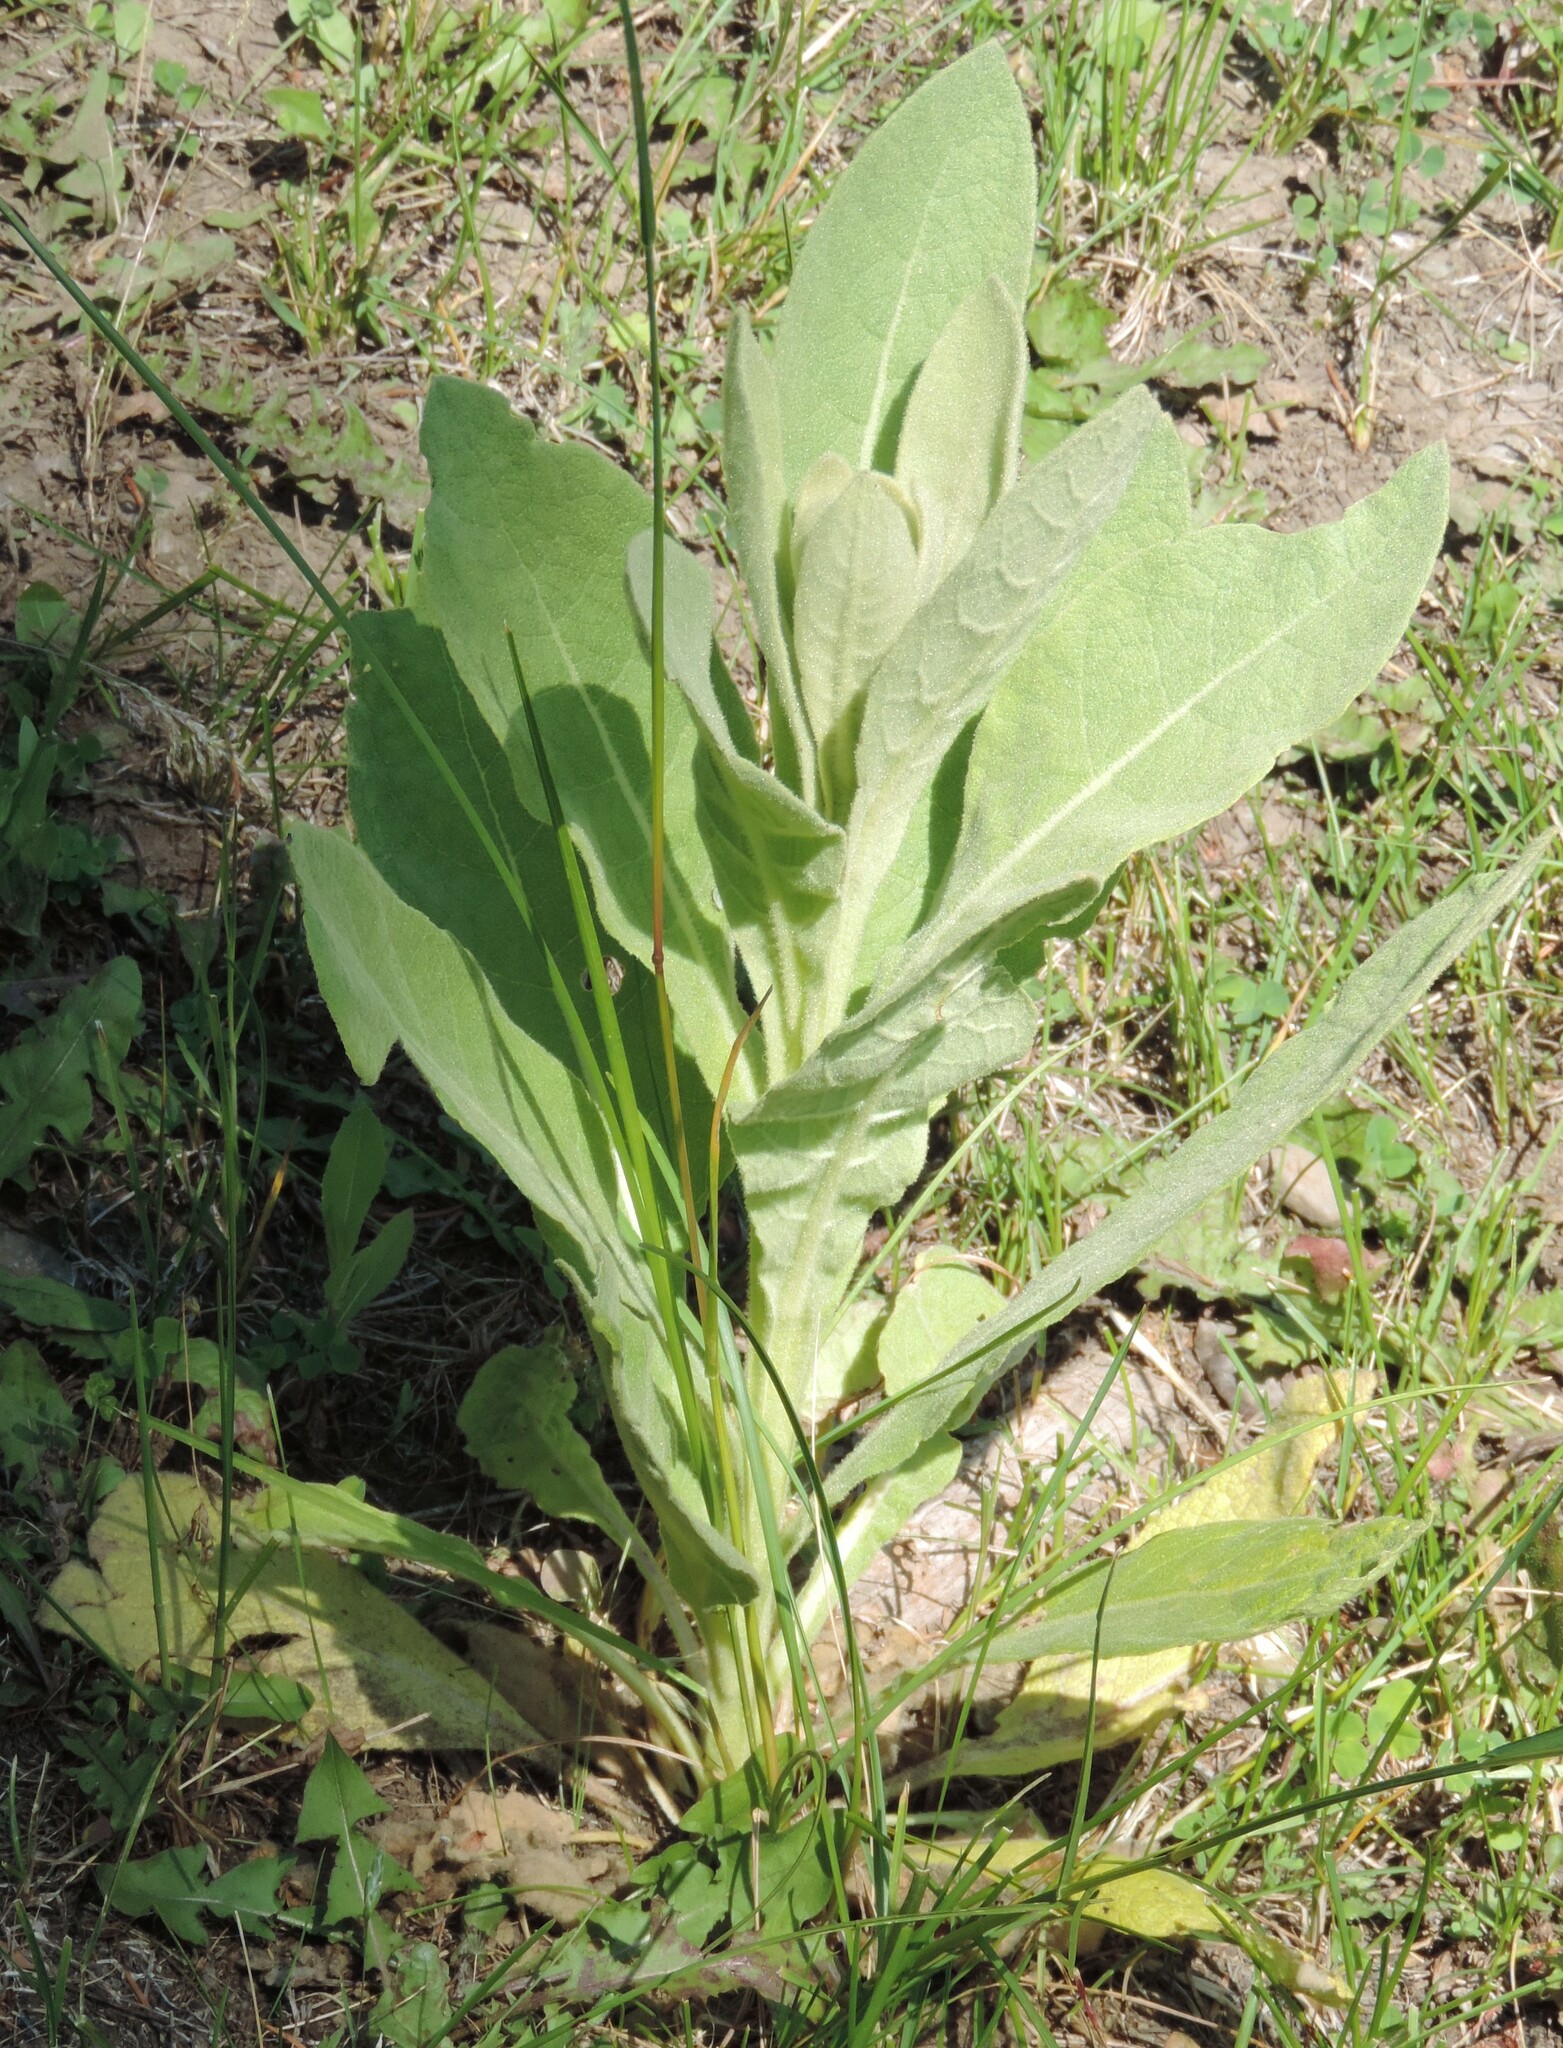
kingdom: Plantae
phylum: Tracheophyta
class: Magnoliopsida
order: Lamiales
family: Scrophulariaceae
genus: Verbascum
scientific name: Verbascum thapsus
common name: Common mullein
